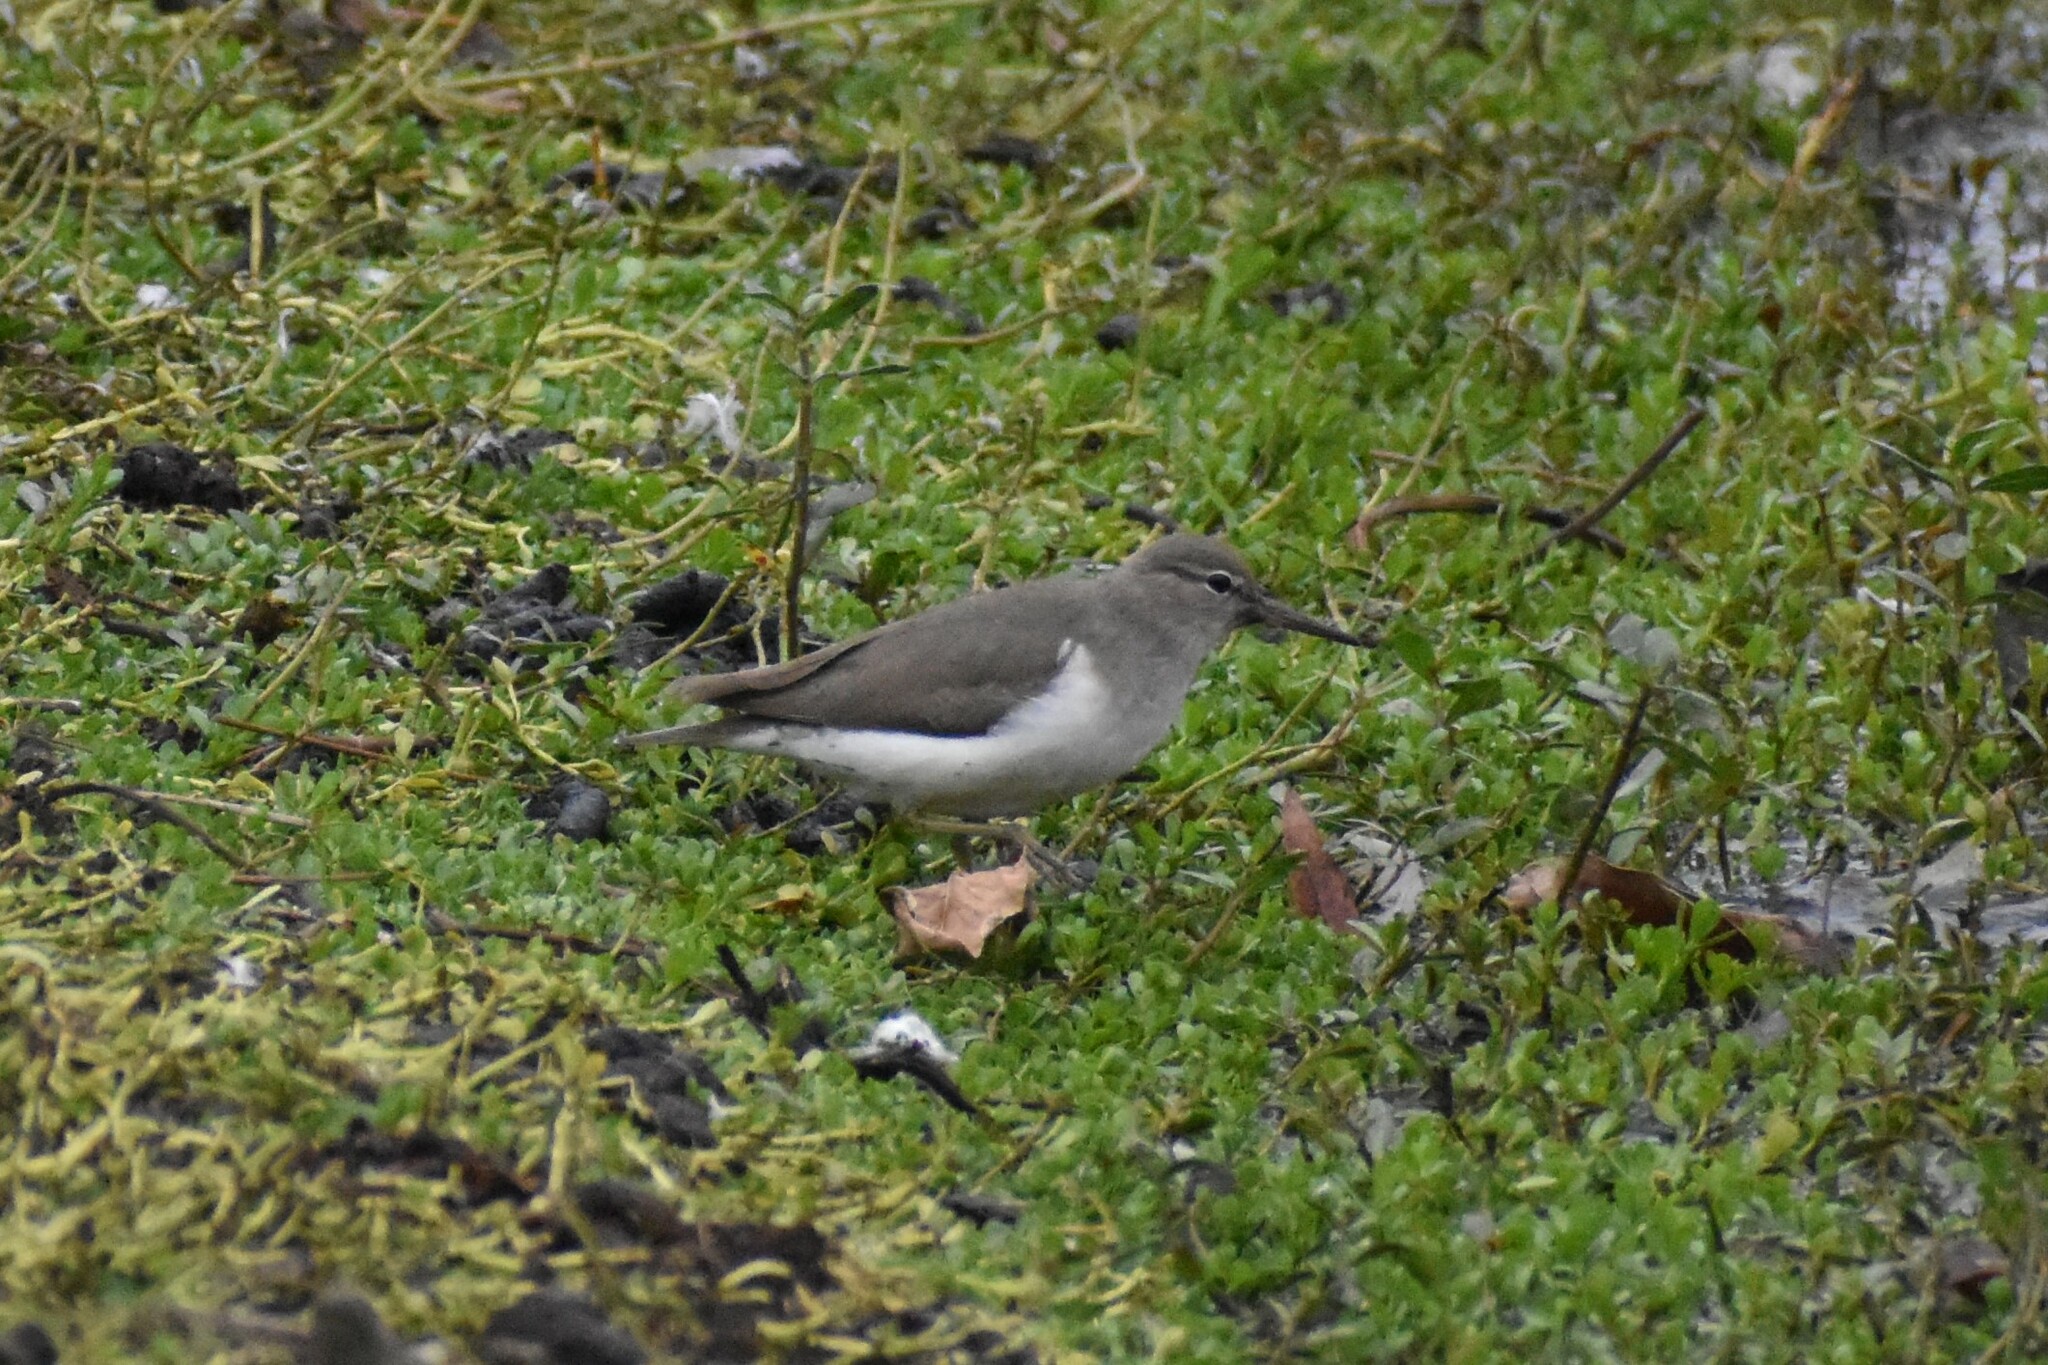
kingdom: Animalia
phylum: Chordata
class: Aves
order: Charadriiformes
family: Scolopacidae
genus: Actitis
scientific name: Actitis macularius
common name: Spotted sandpiper
